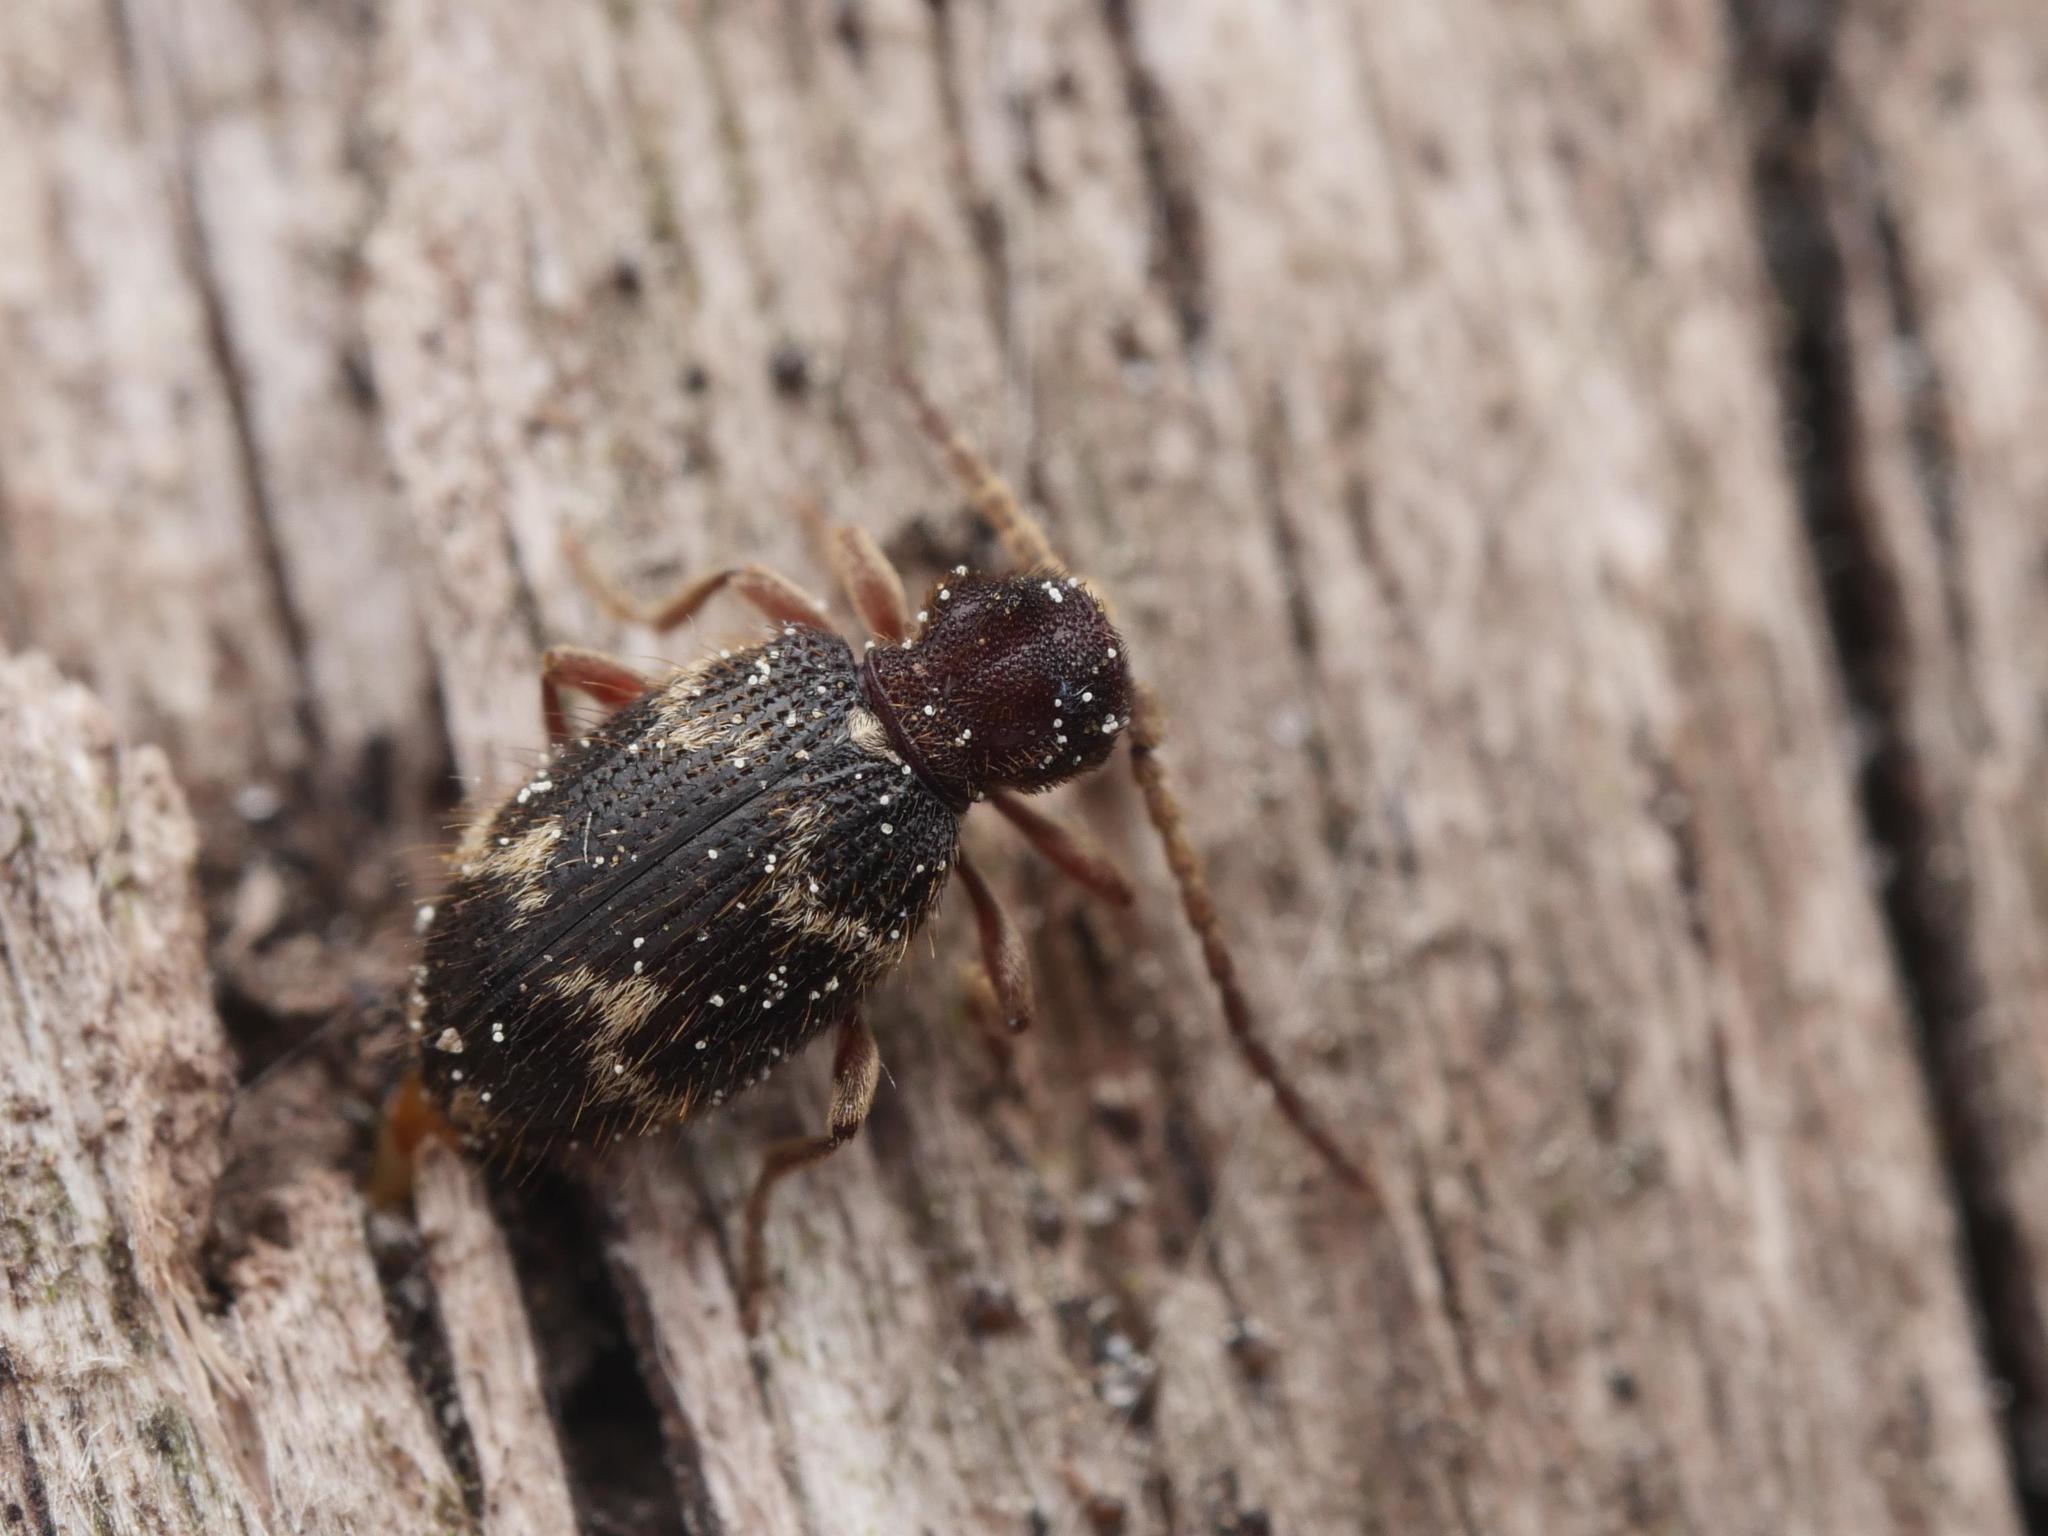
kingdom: Animalia
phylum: Arthropoda
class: Insecta
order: Coleoptera
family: Ptinidae
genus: Ptinus
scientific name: Ptinus rufipes
